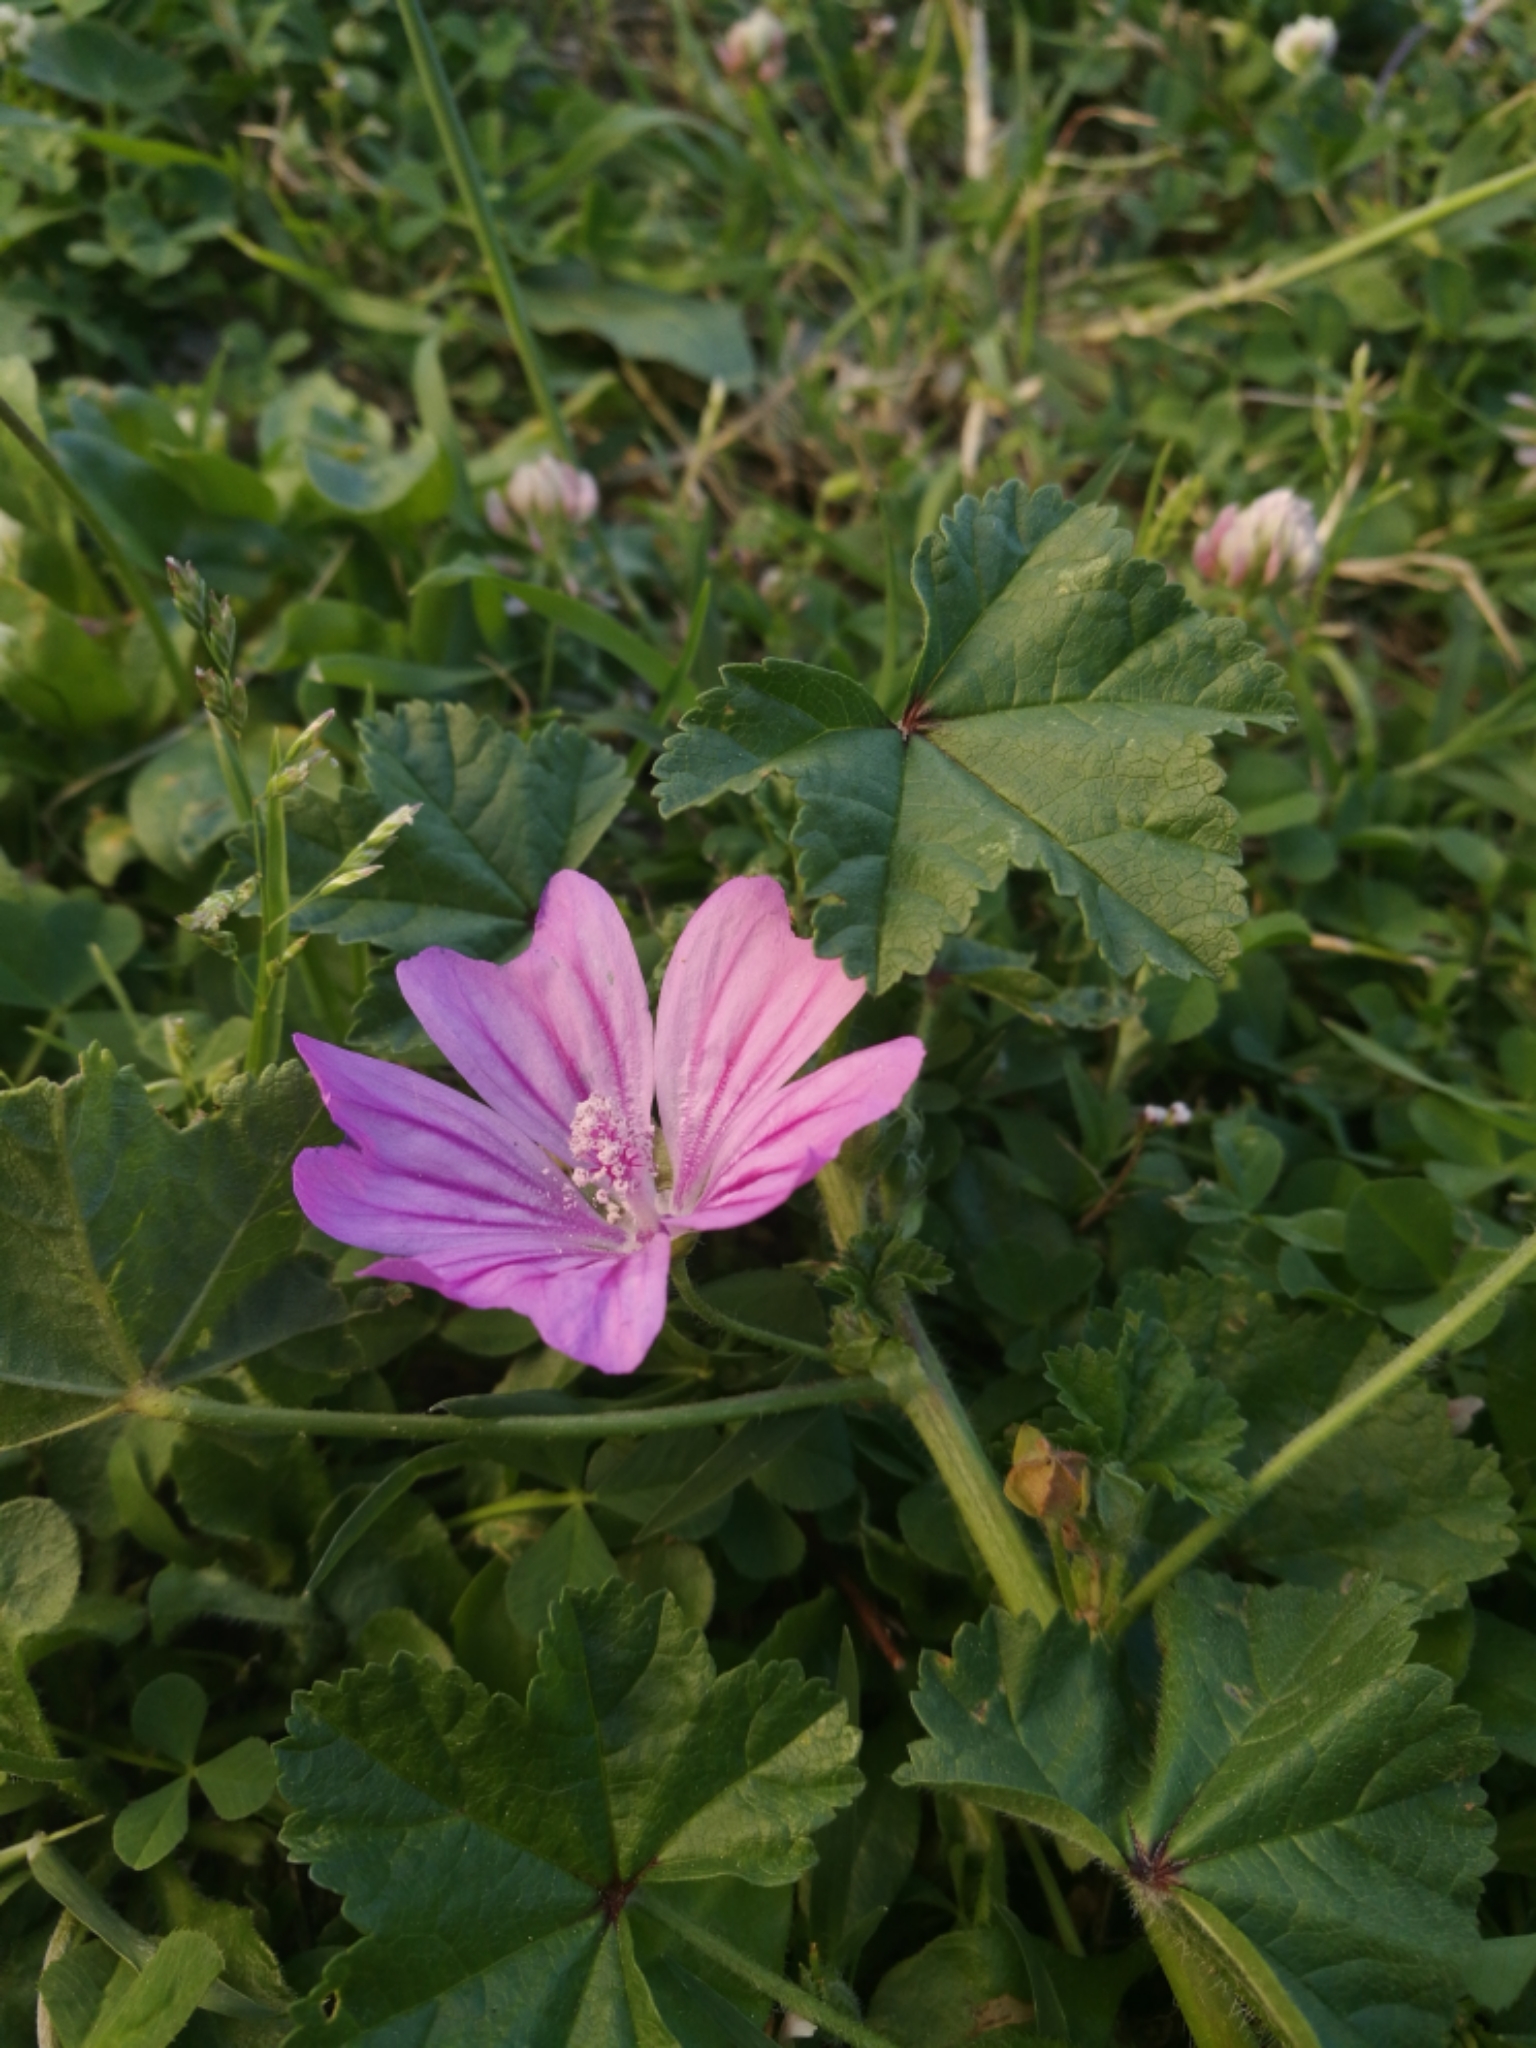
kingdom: Plantae
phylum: Tracheophyta
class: Magnoliopsida
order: Malvales
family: Malvaceae
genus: Malva
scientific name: Malva sylvestris
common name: Common mallow
